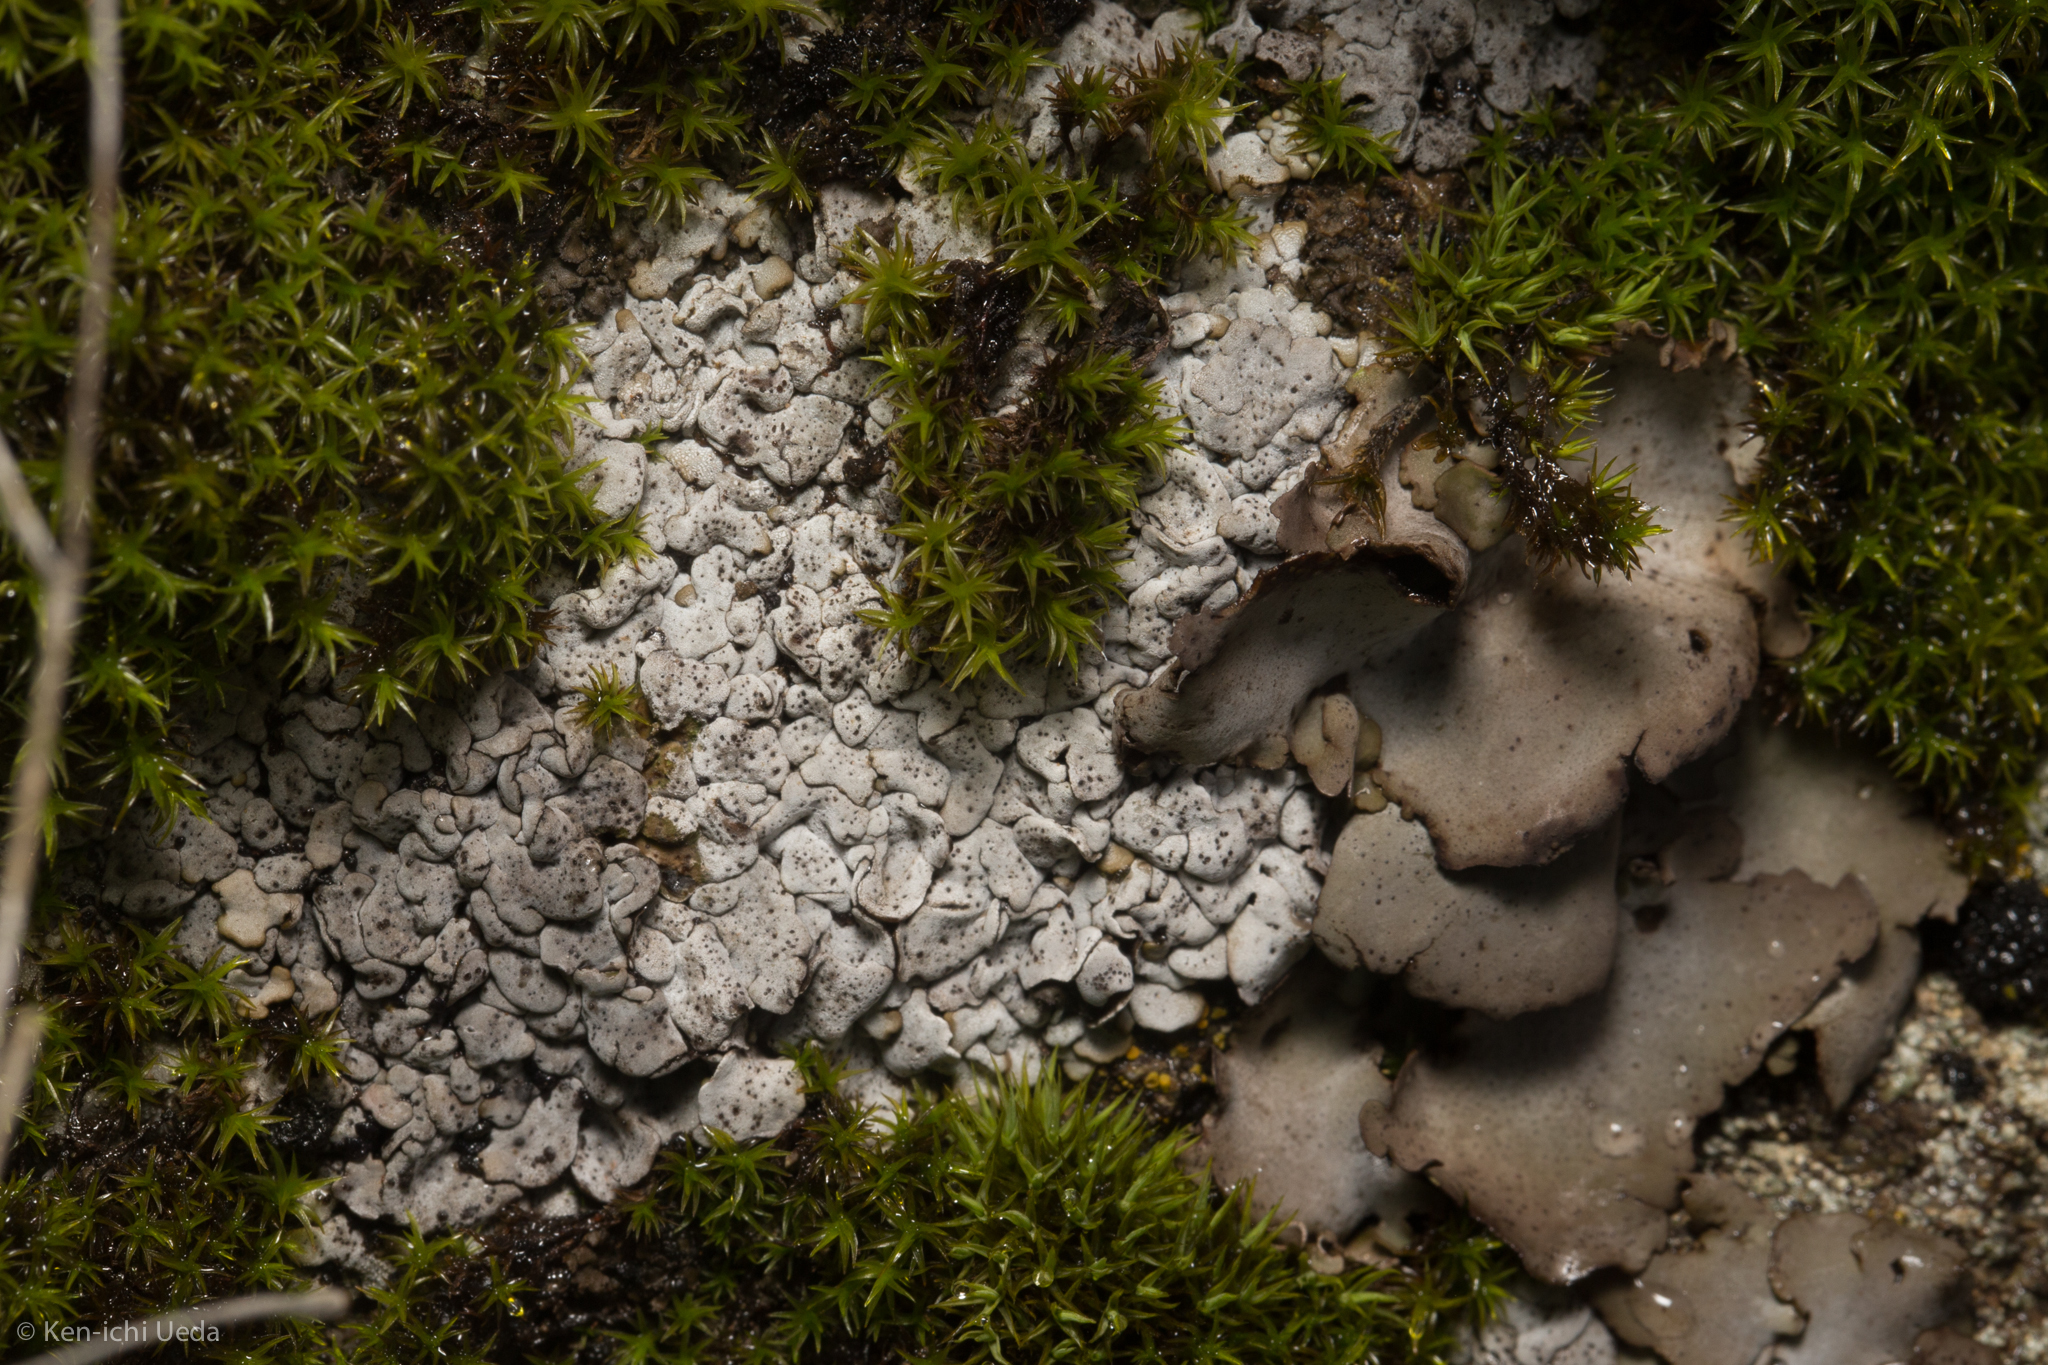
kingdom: Fungi
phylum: Ascomycota
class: Eurotiomycetes
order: Verrucariales
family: Verrucariaceae
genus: Dermatocarpon
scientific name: Dermatocarpon intestiniforme
